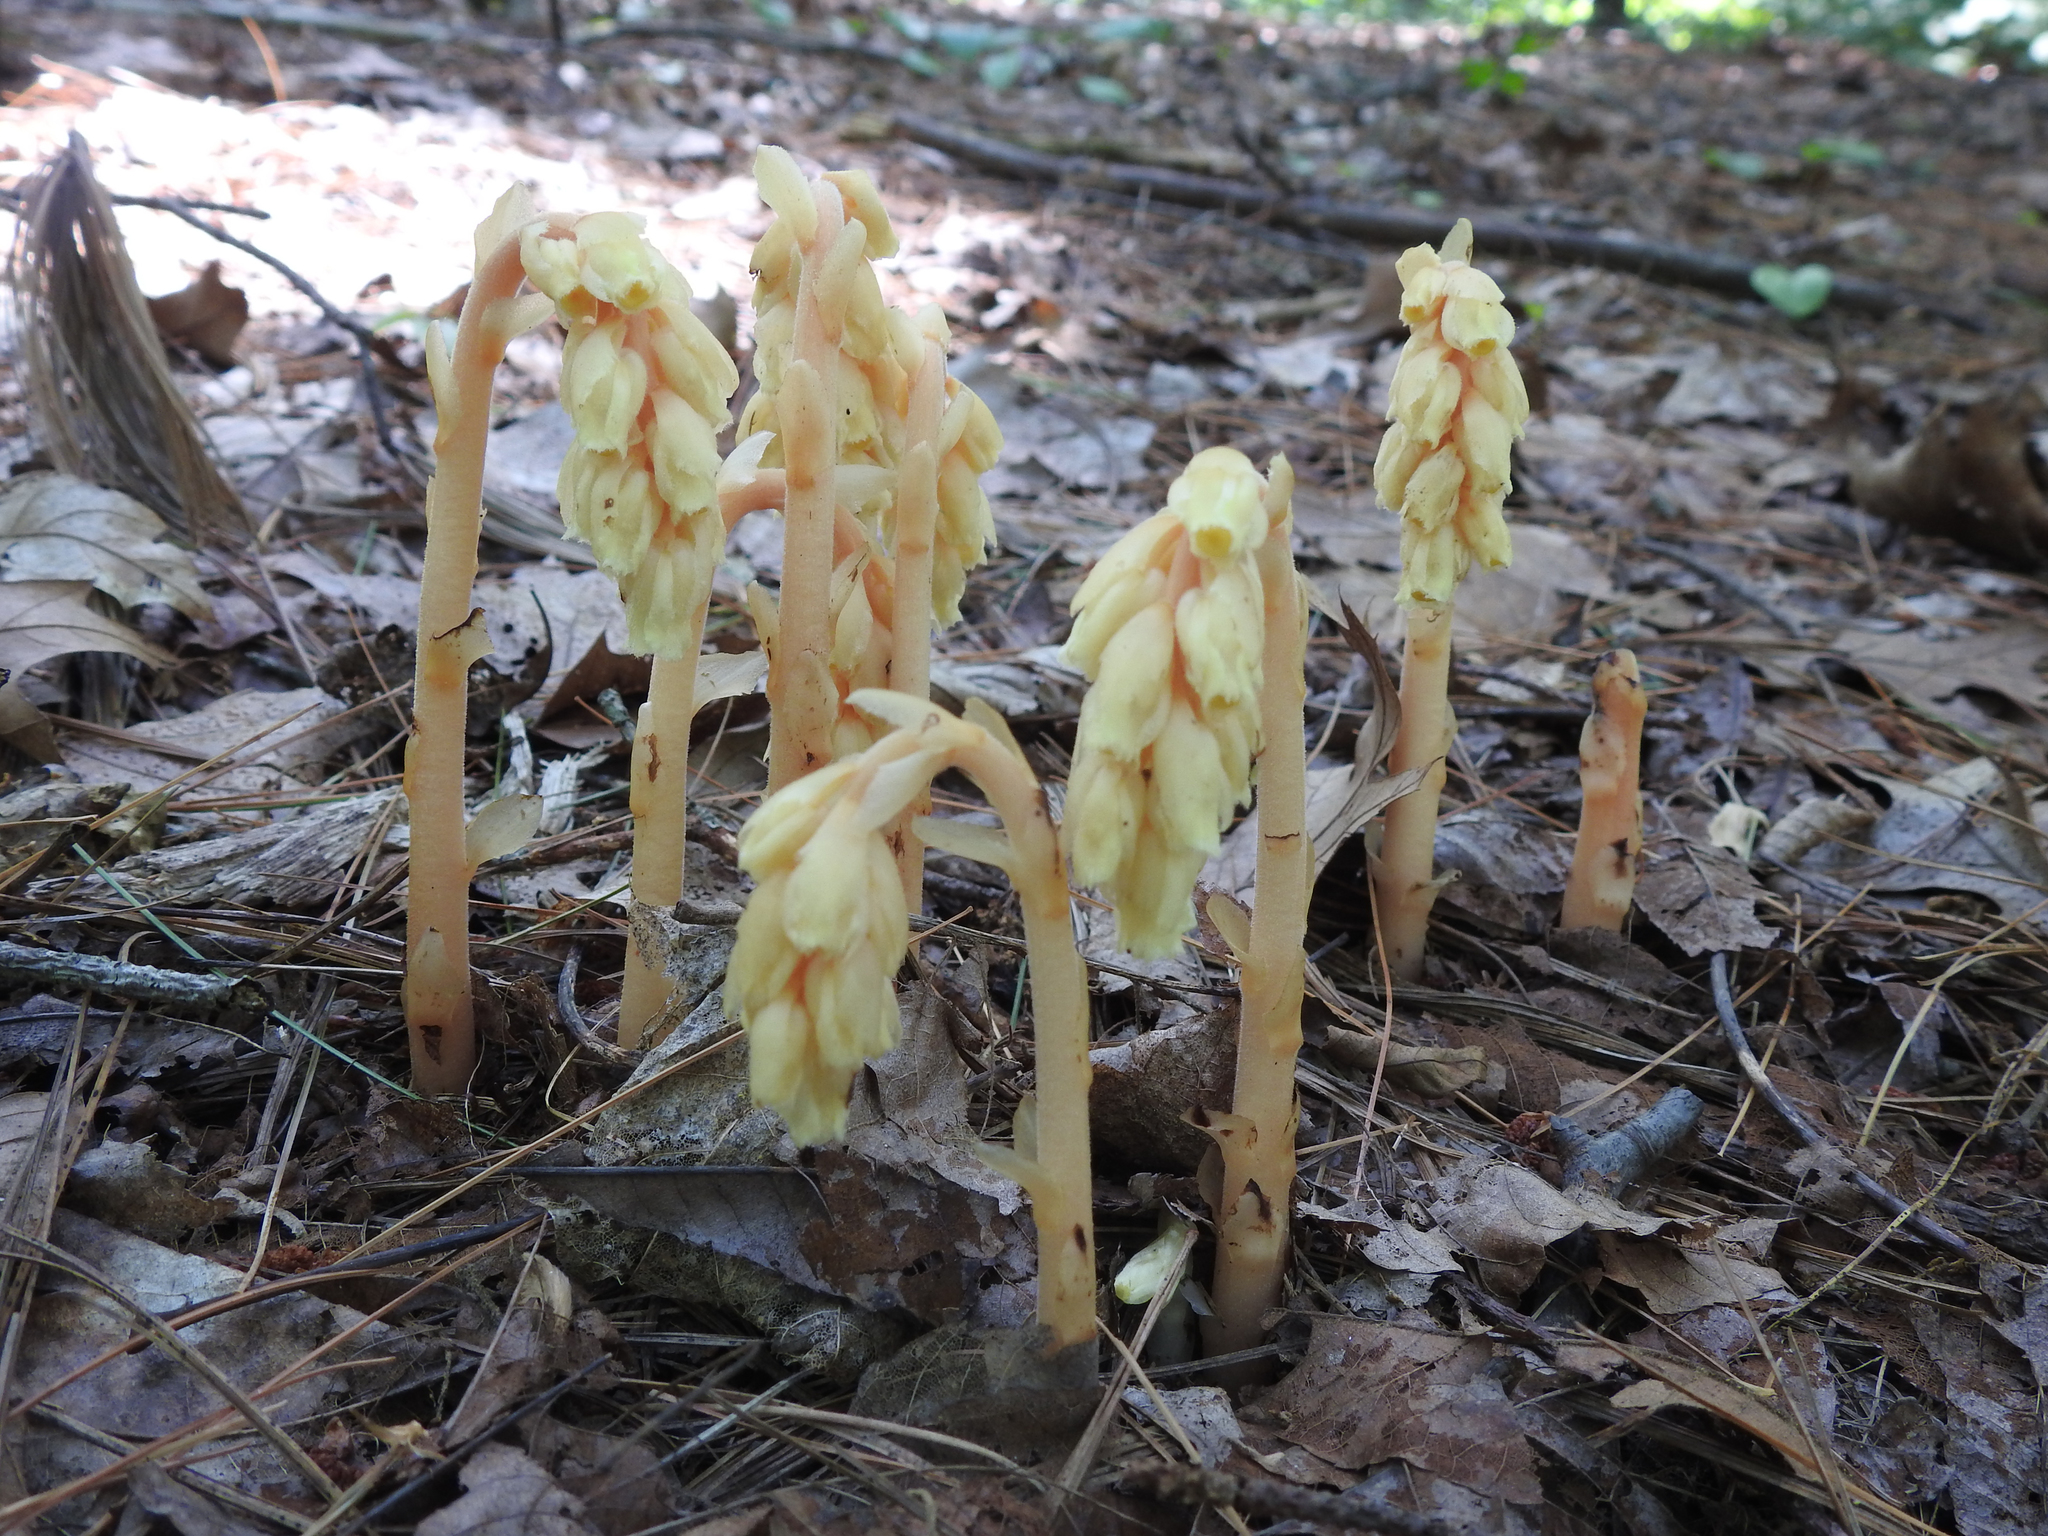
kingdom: Plantae
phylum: Tracheophyta
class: Magnoliopsida
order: Ericales
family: Ericaceae
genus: Hypopitys
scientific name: Hypopitys monotropa
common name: Yellow bird's-nest
